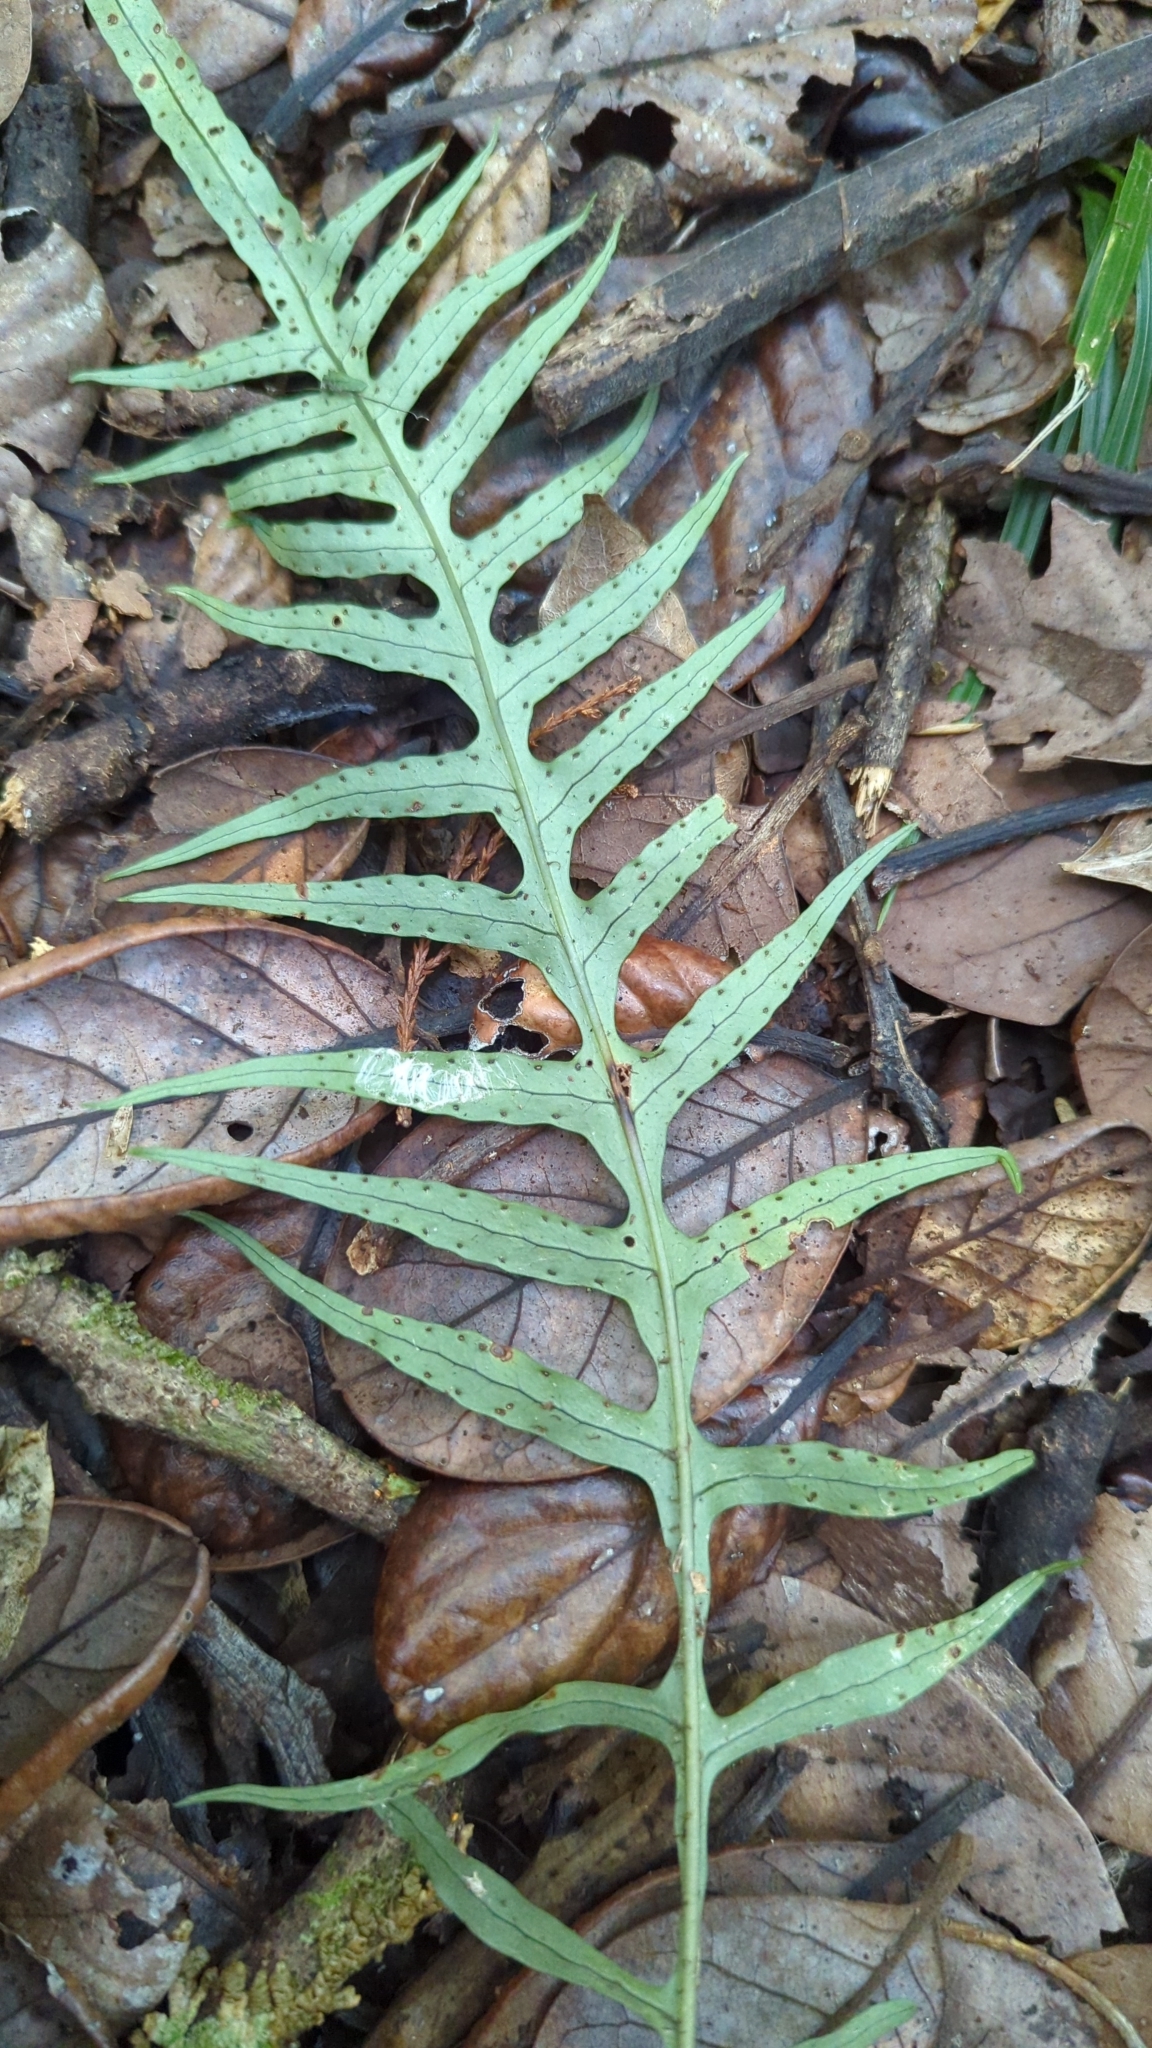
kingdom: Plantae
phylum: Tracheophyta
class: Polypodiopsida
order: Polypodiales
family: Polypodiaceae
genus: Lecanopteris
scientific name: Lecanopteris scandens
